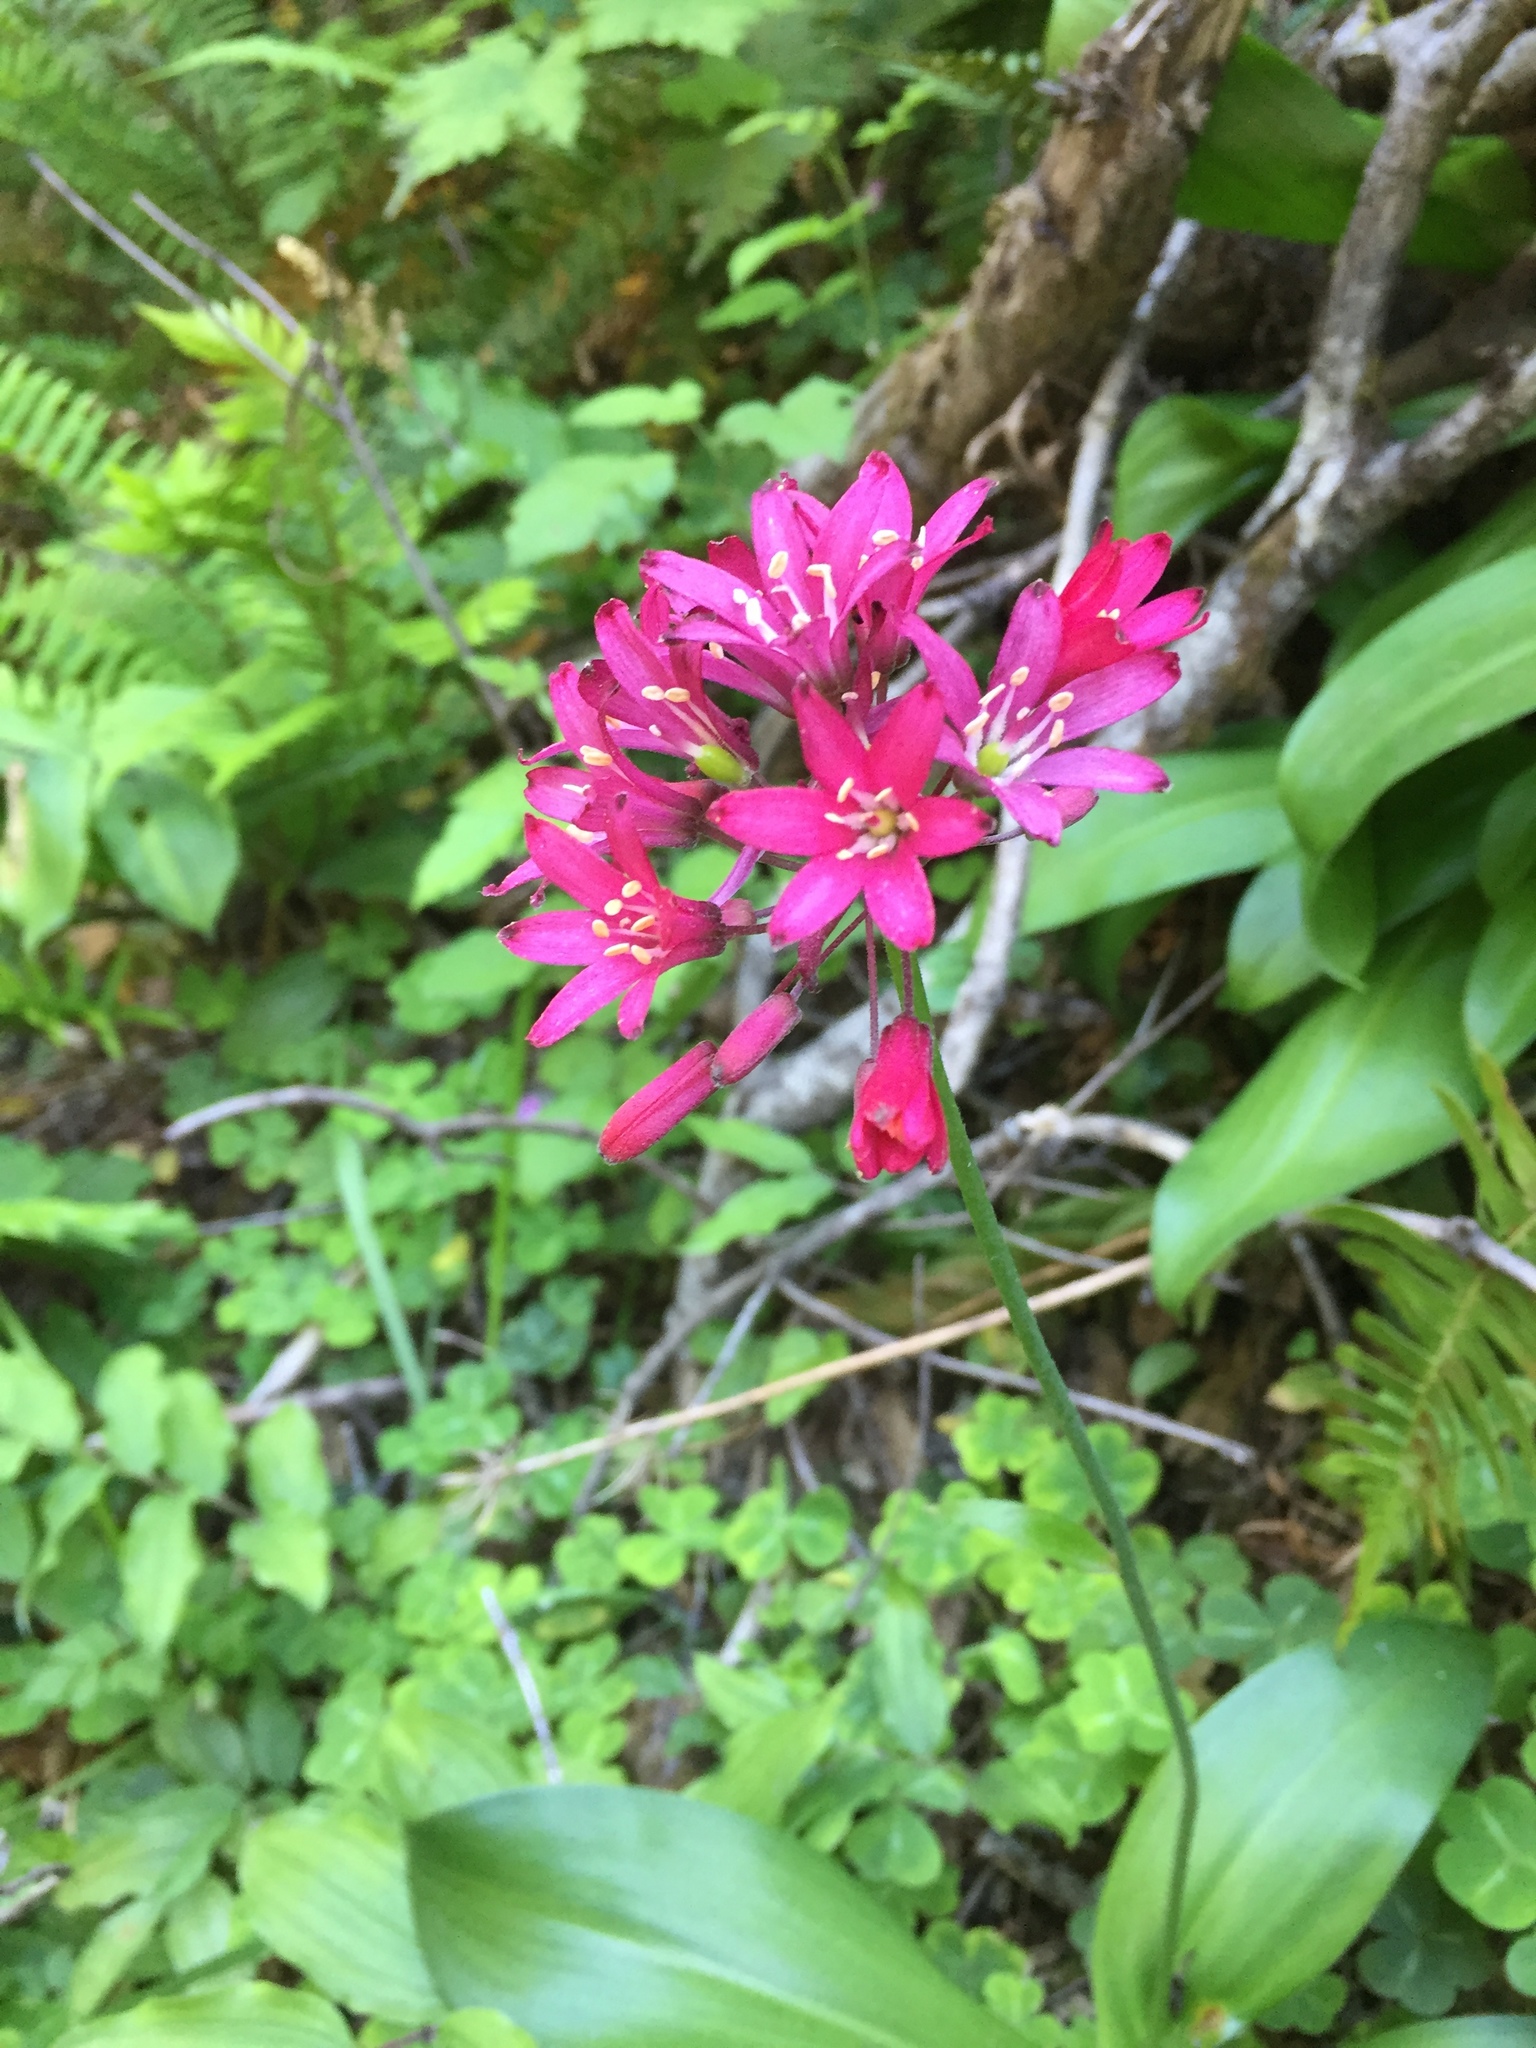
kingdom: Plantae
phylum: Tracheophyta
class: Liliopsida
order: Liliales
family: Liliaceae
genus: Clintonia
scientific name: Clintonia andrewsiana
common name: Red clintonia
